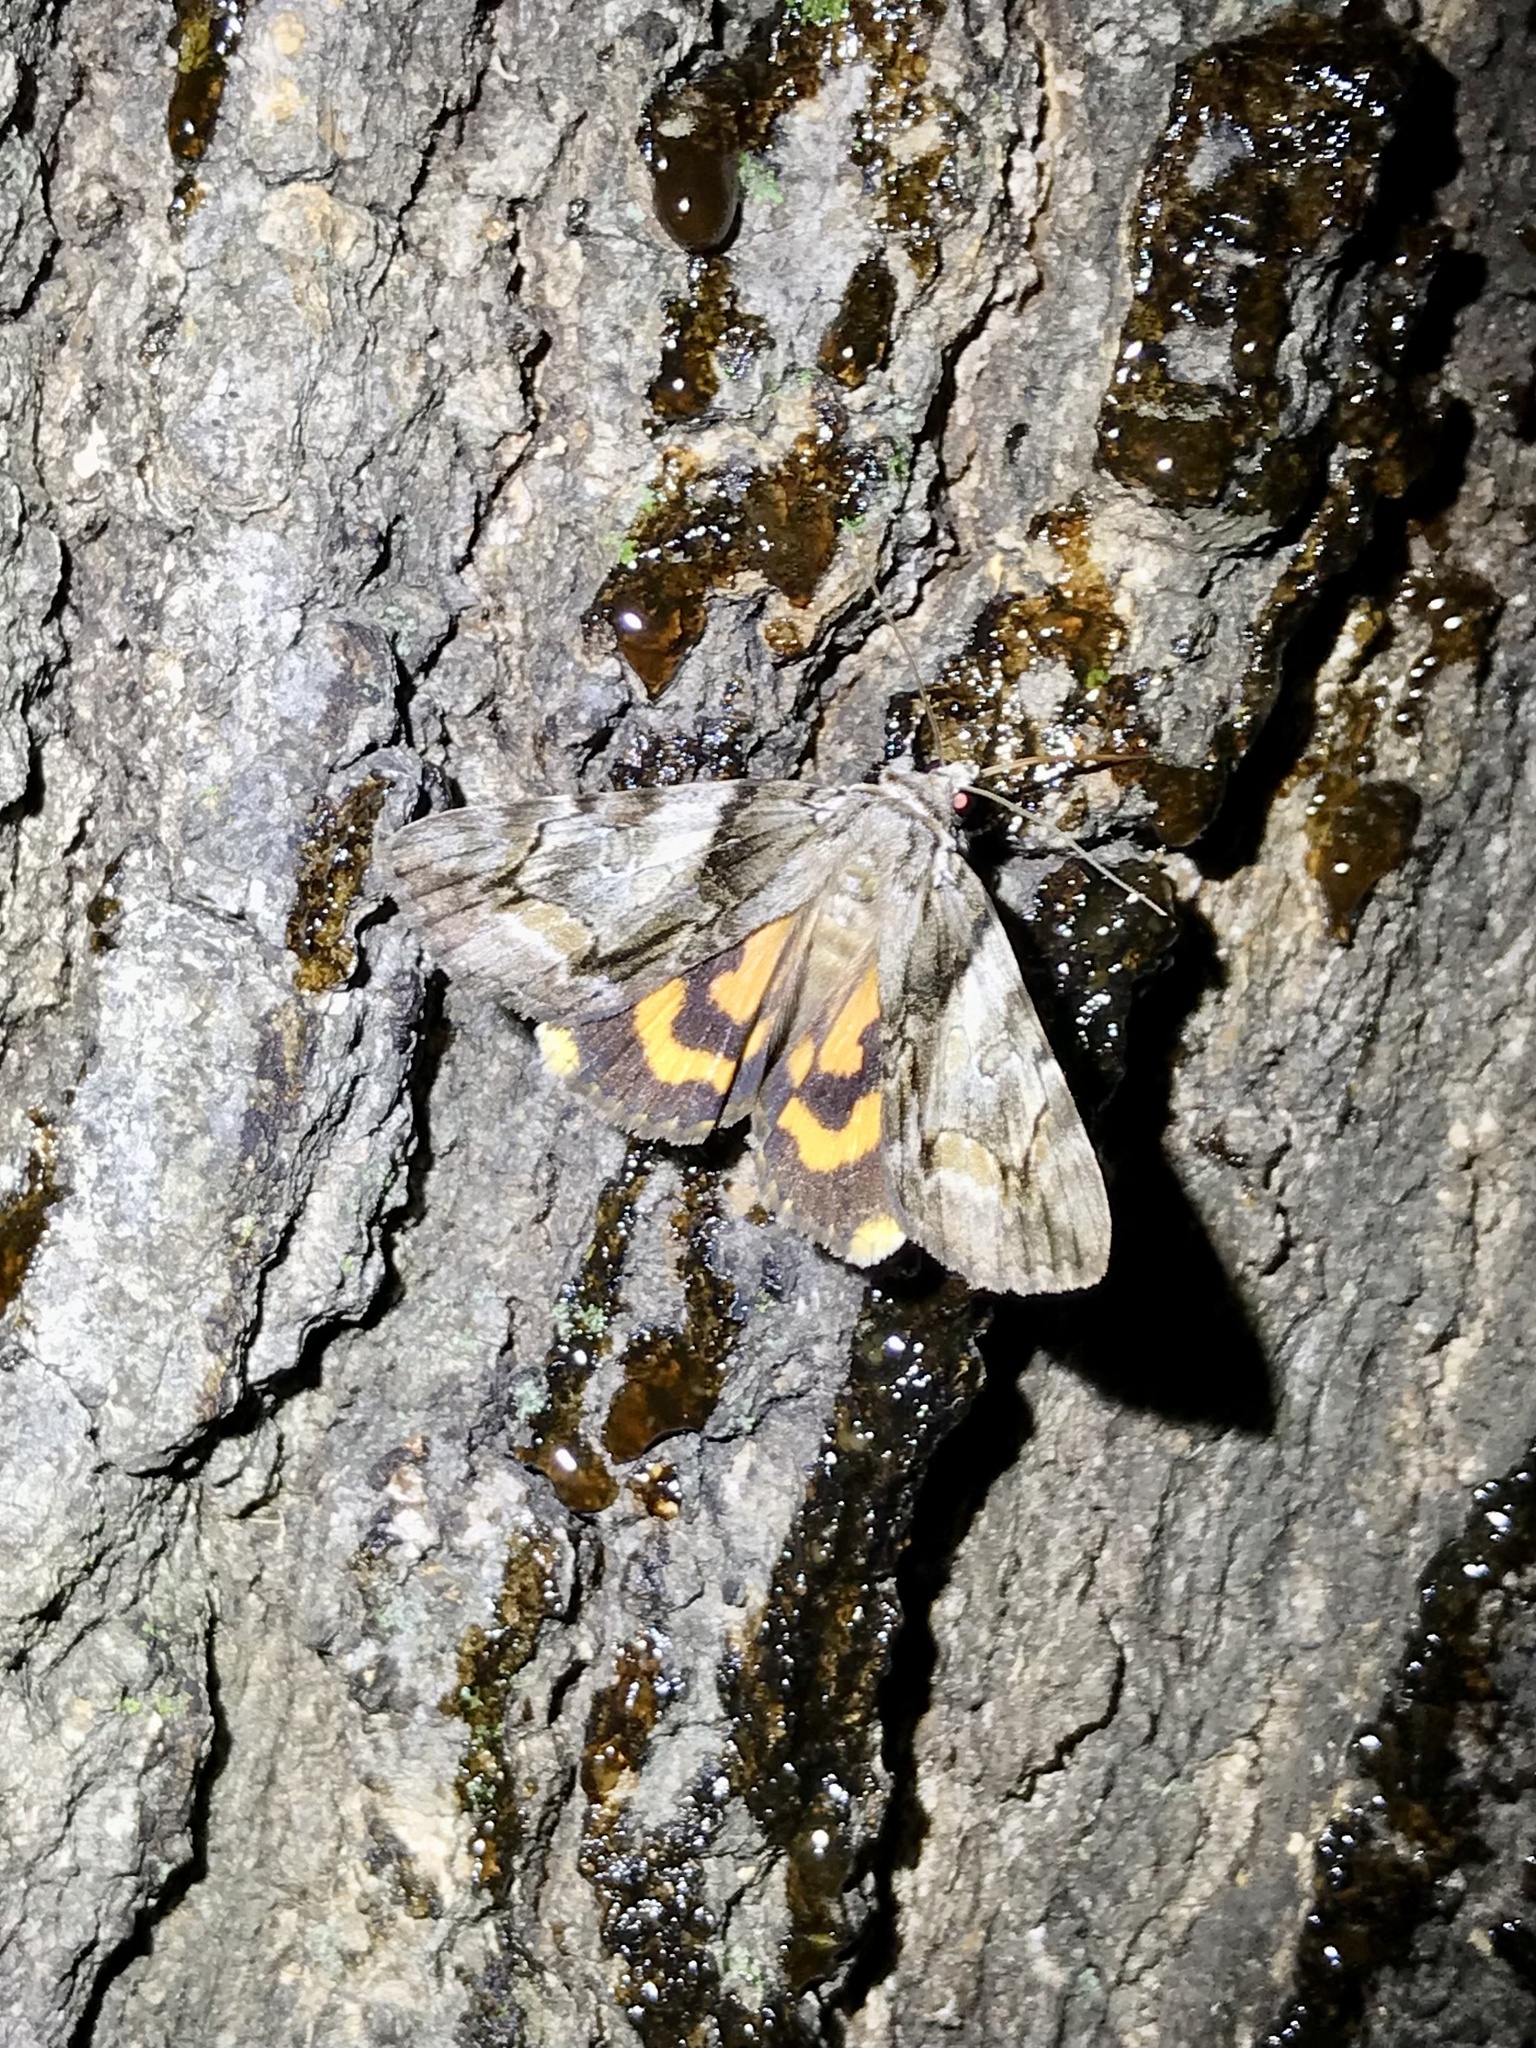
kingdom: Animalia
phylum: Arthropoda
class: Insecta
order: Lepidoptera
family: Erebidae
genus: Catocala
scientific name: Catocala blandula
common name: Charming underwing
